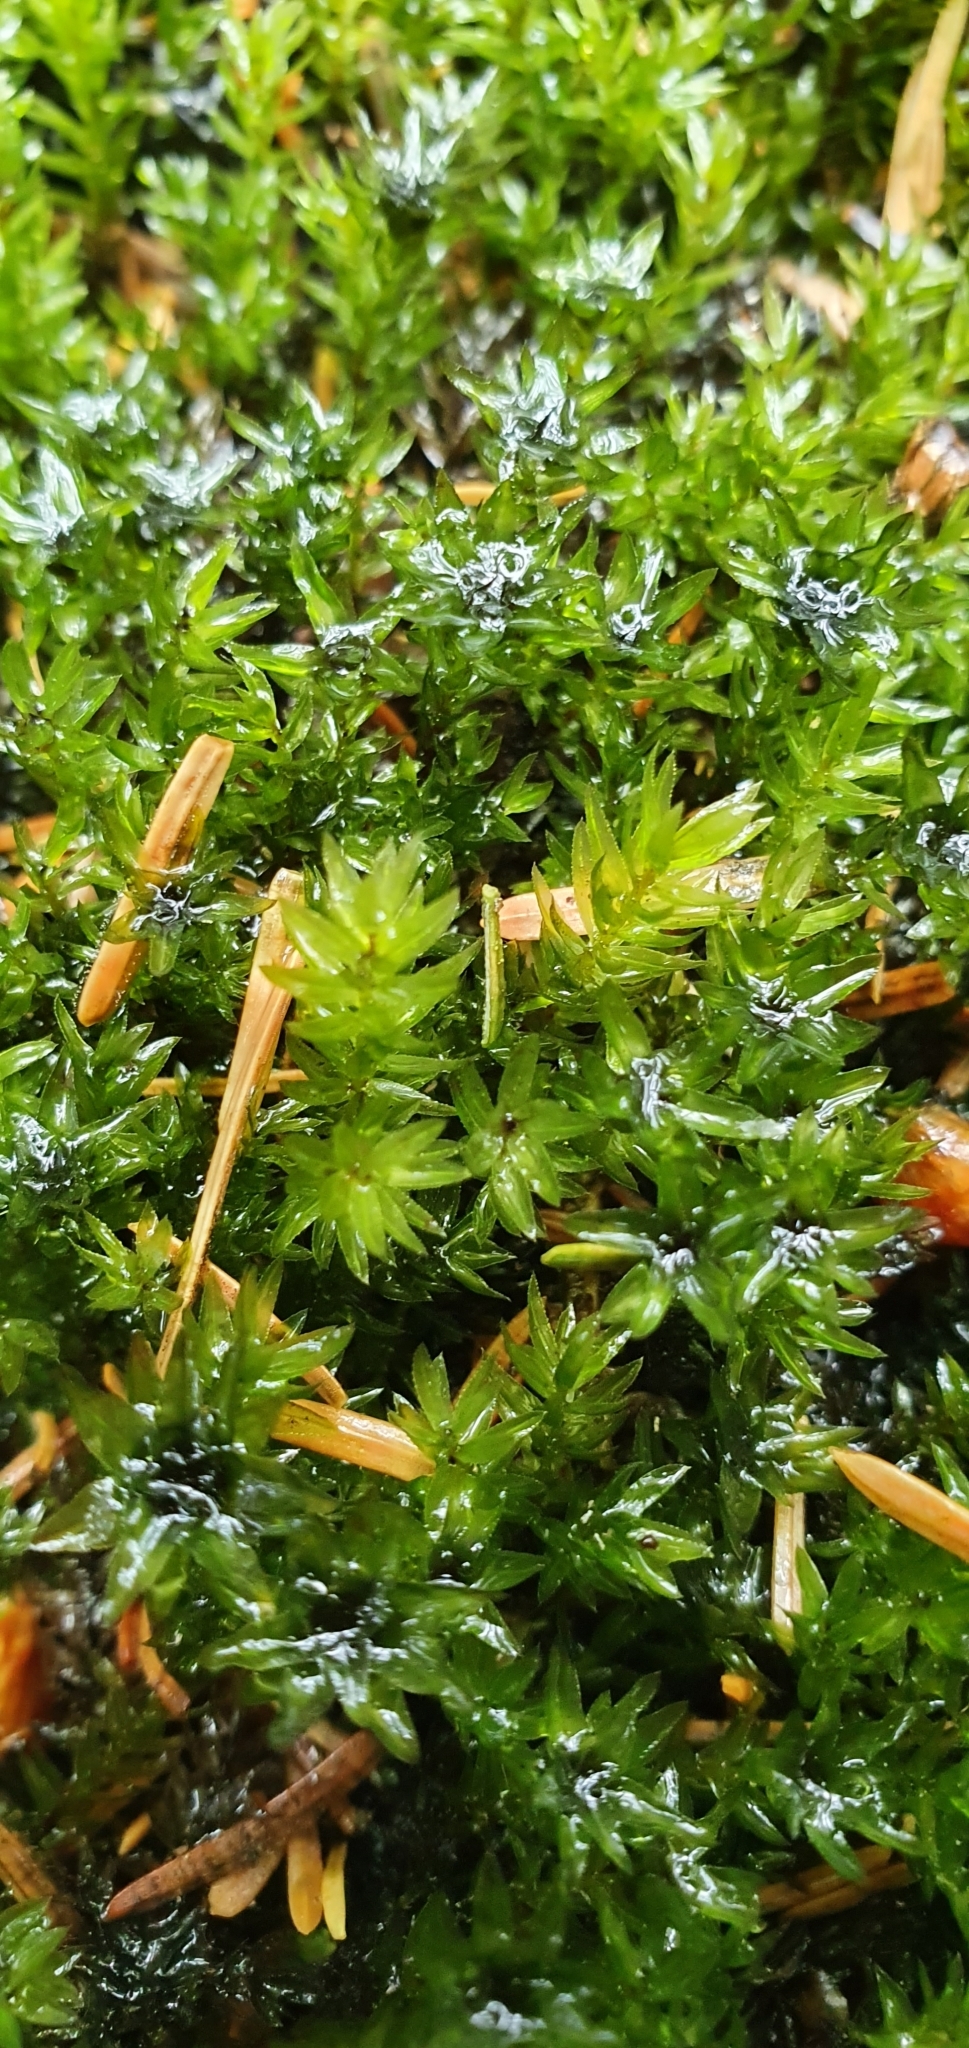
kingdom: Plantae
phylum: Bryophyta
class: Bryopsida
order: Bryales
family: Mniaceae
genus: Mnium
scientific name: Mnium hornum
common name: Swan's-neck leafy moss
